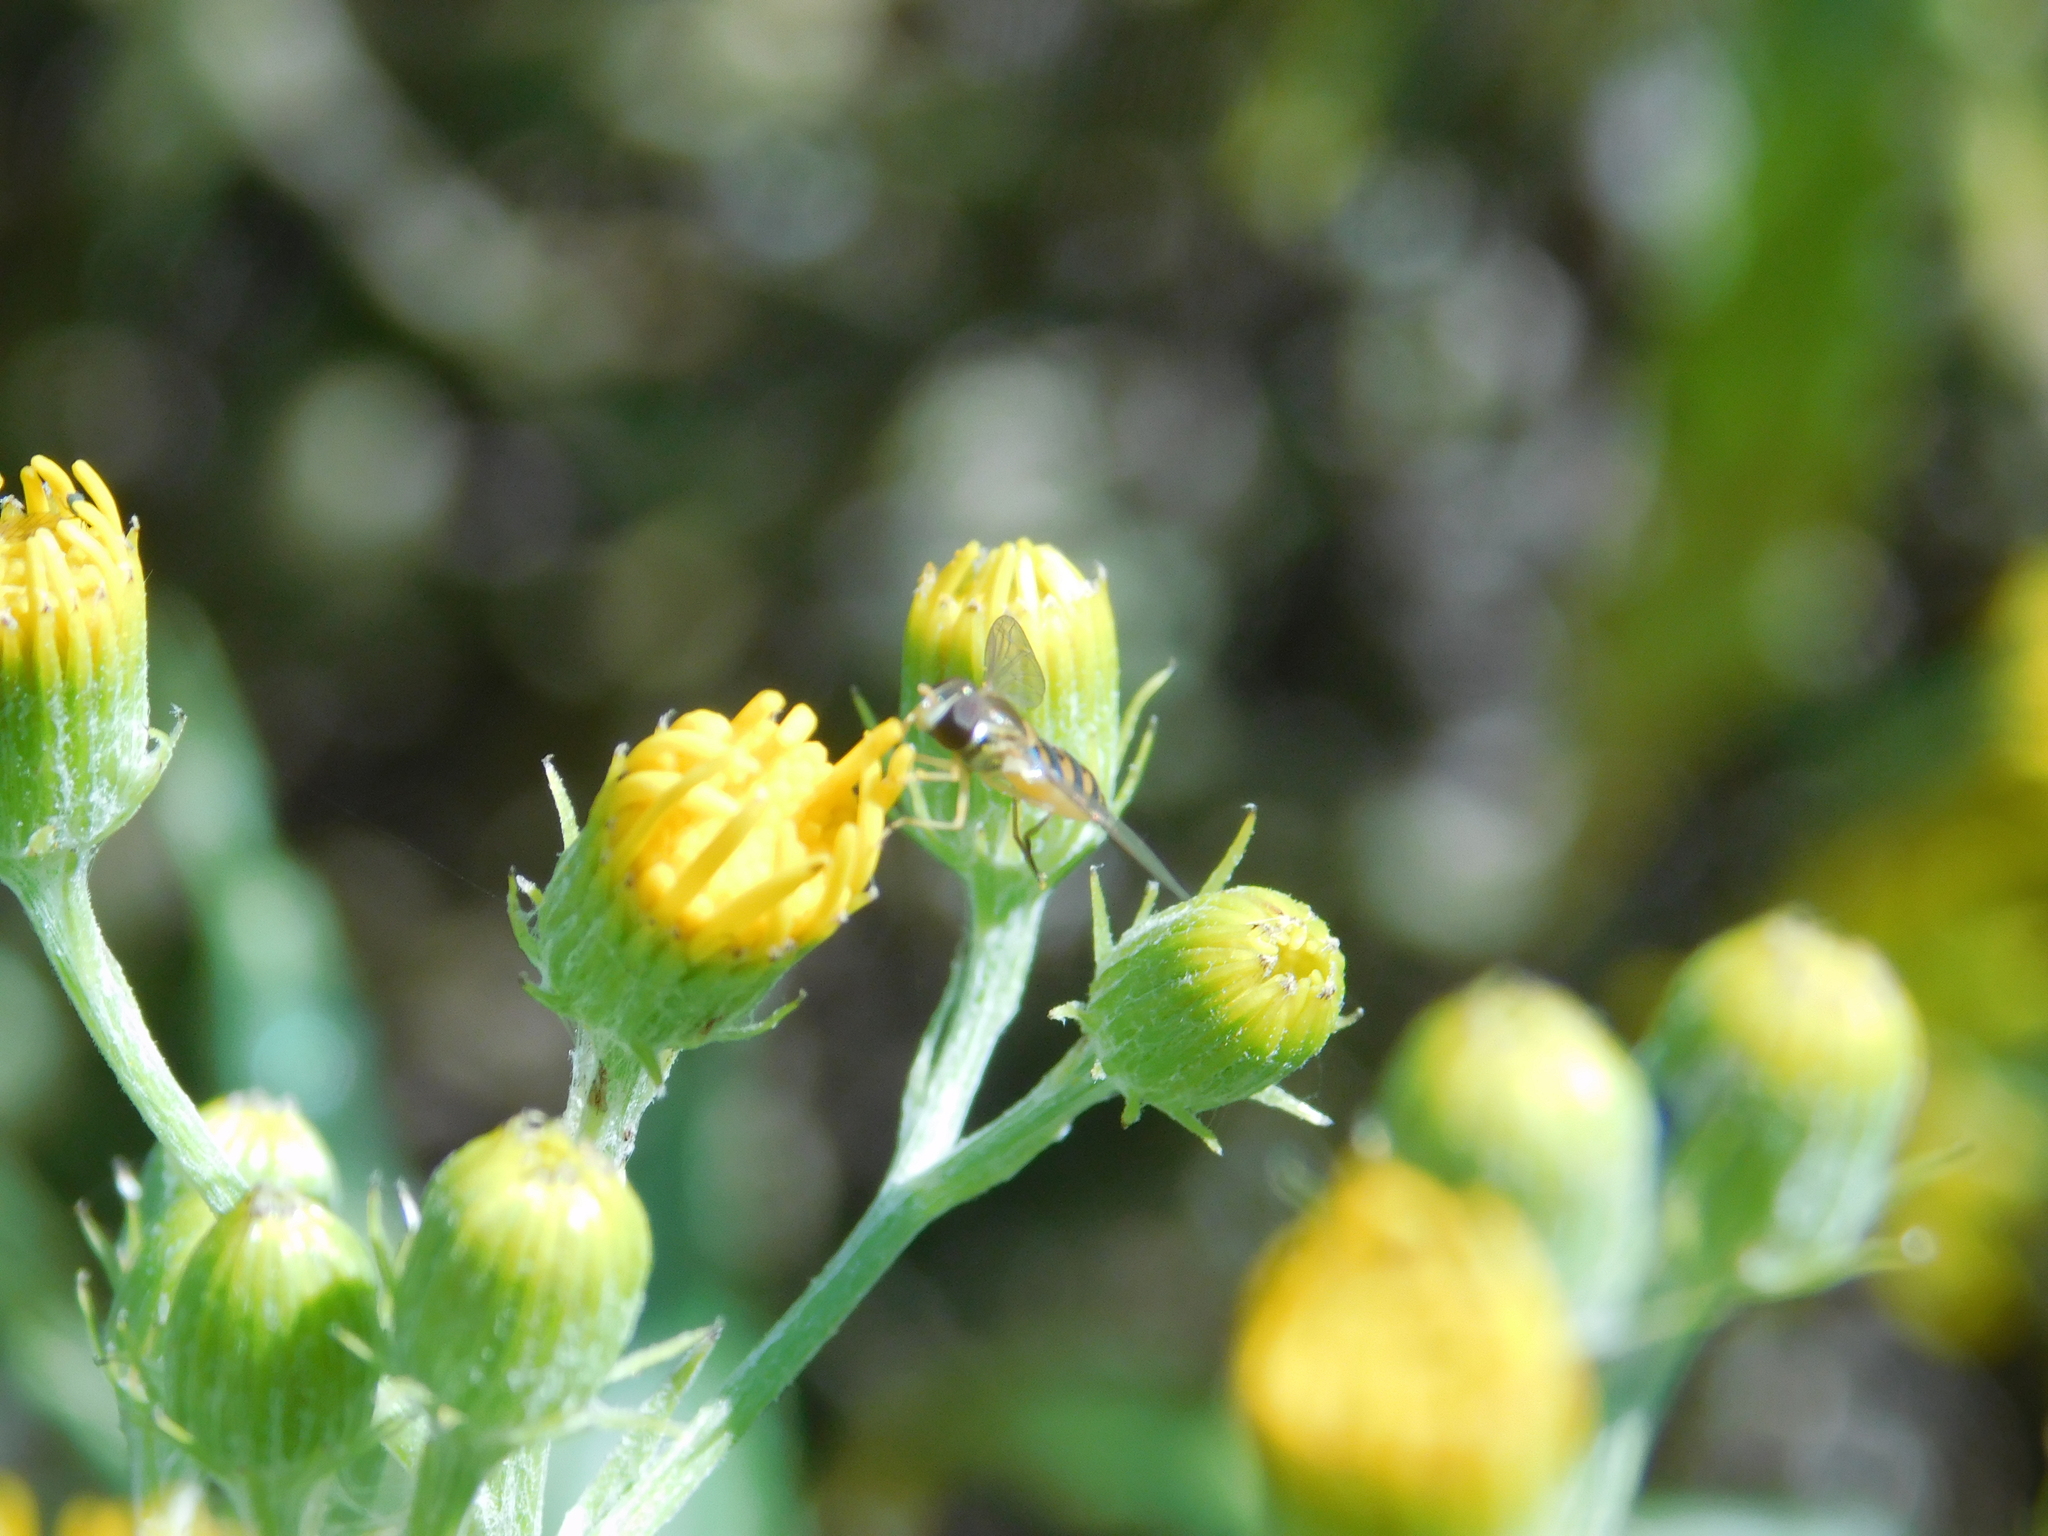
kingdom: Animalia
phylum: Arthropoda
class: Insecta
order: Diptera
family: Syrphidae
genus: Toxomerus
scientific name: Toxomerus
